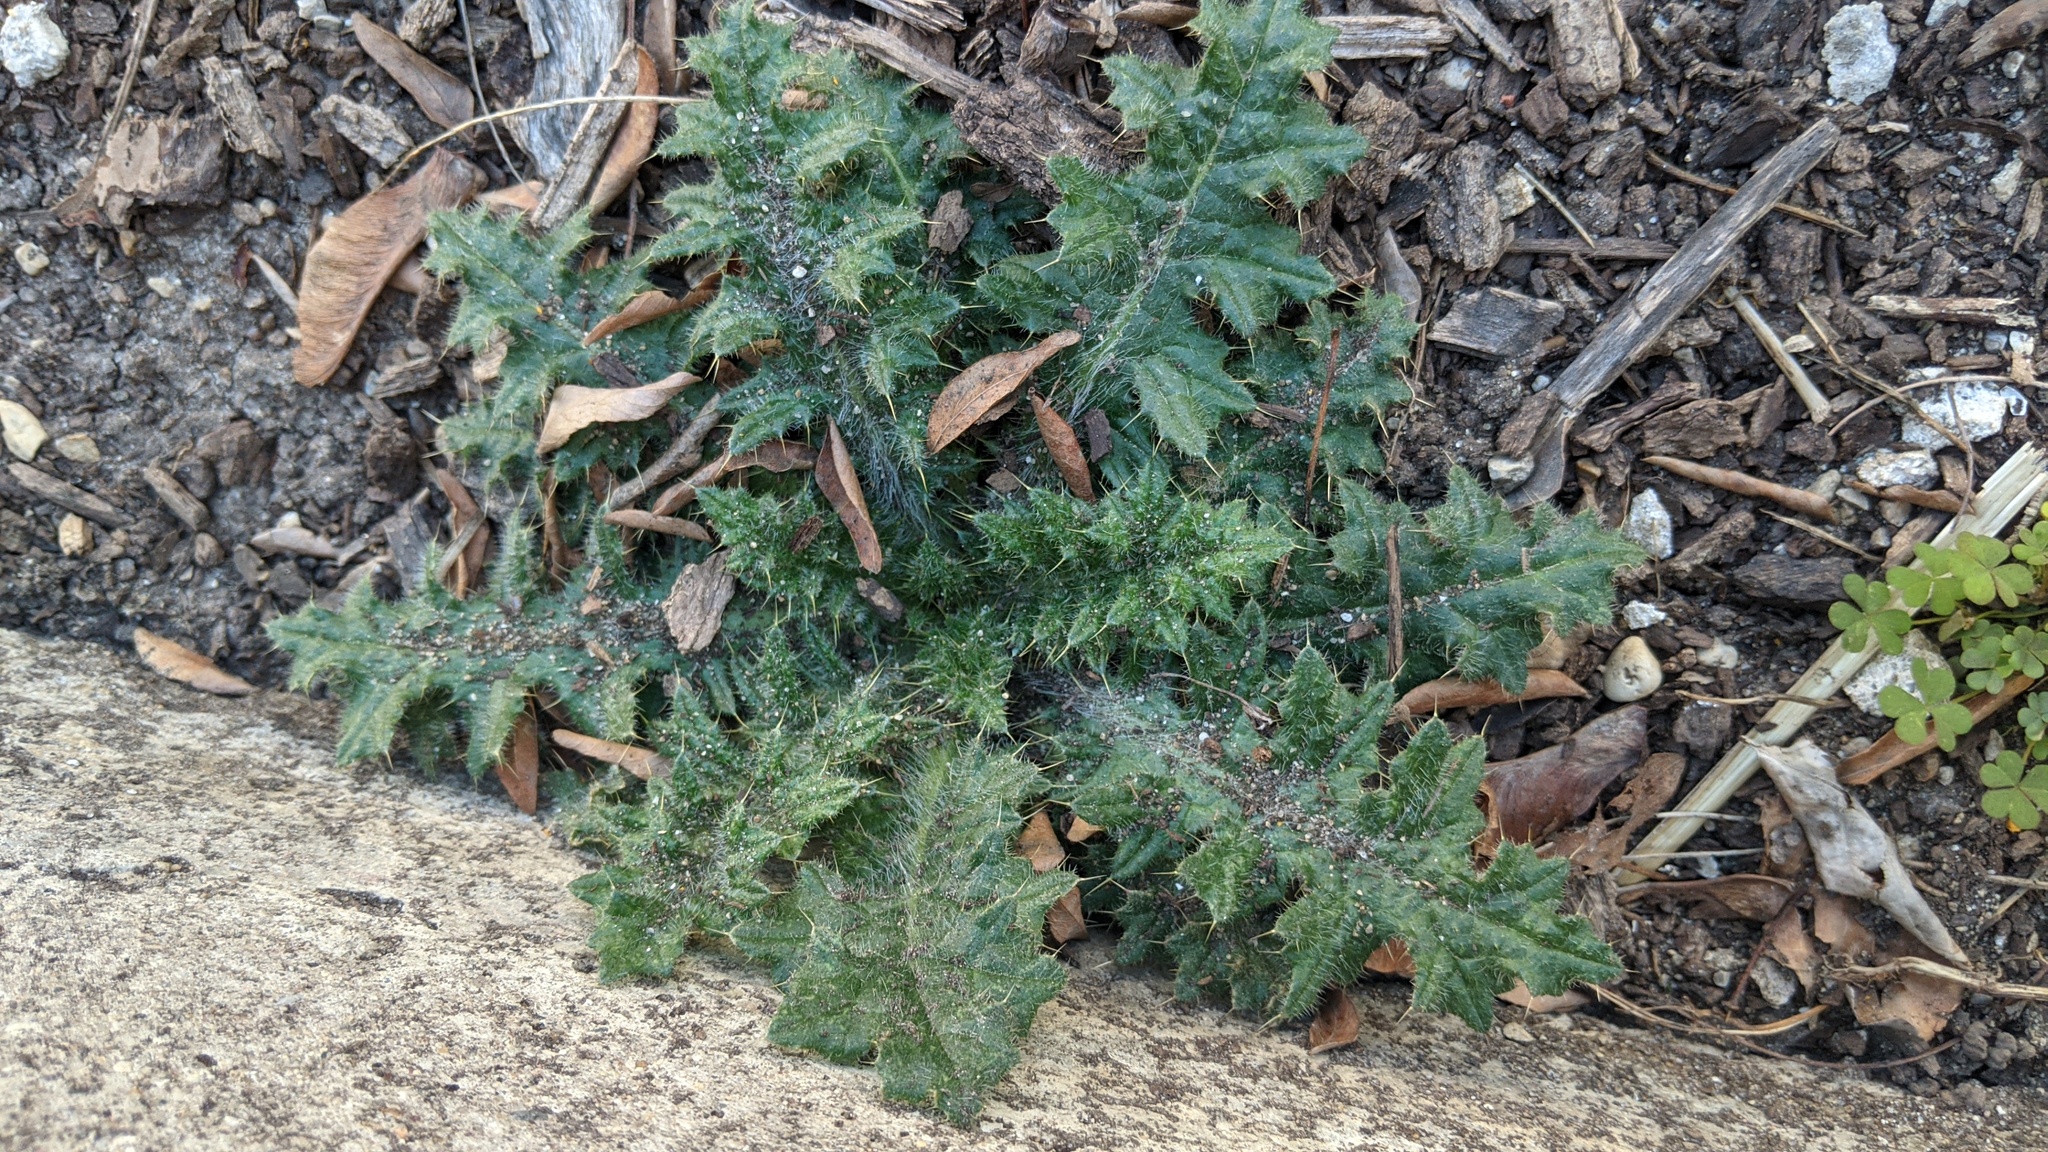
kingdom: Plantae
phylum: Tracheophyta
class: Magnoliopsida
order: Asterales
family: Asteraceae
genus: Cirsium
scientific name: Cirsium vulgare
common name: Bull thistle
